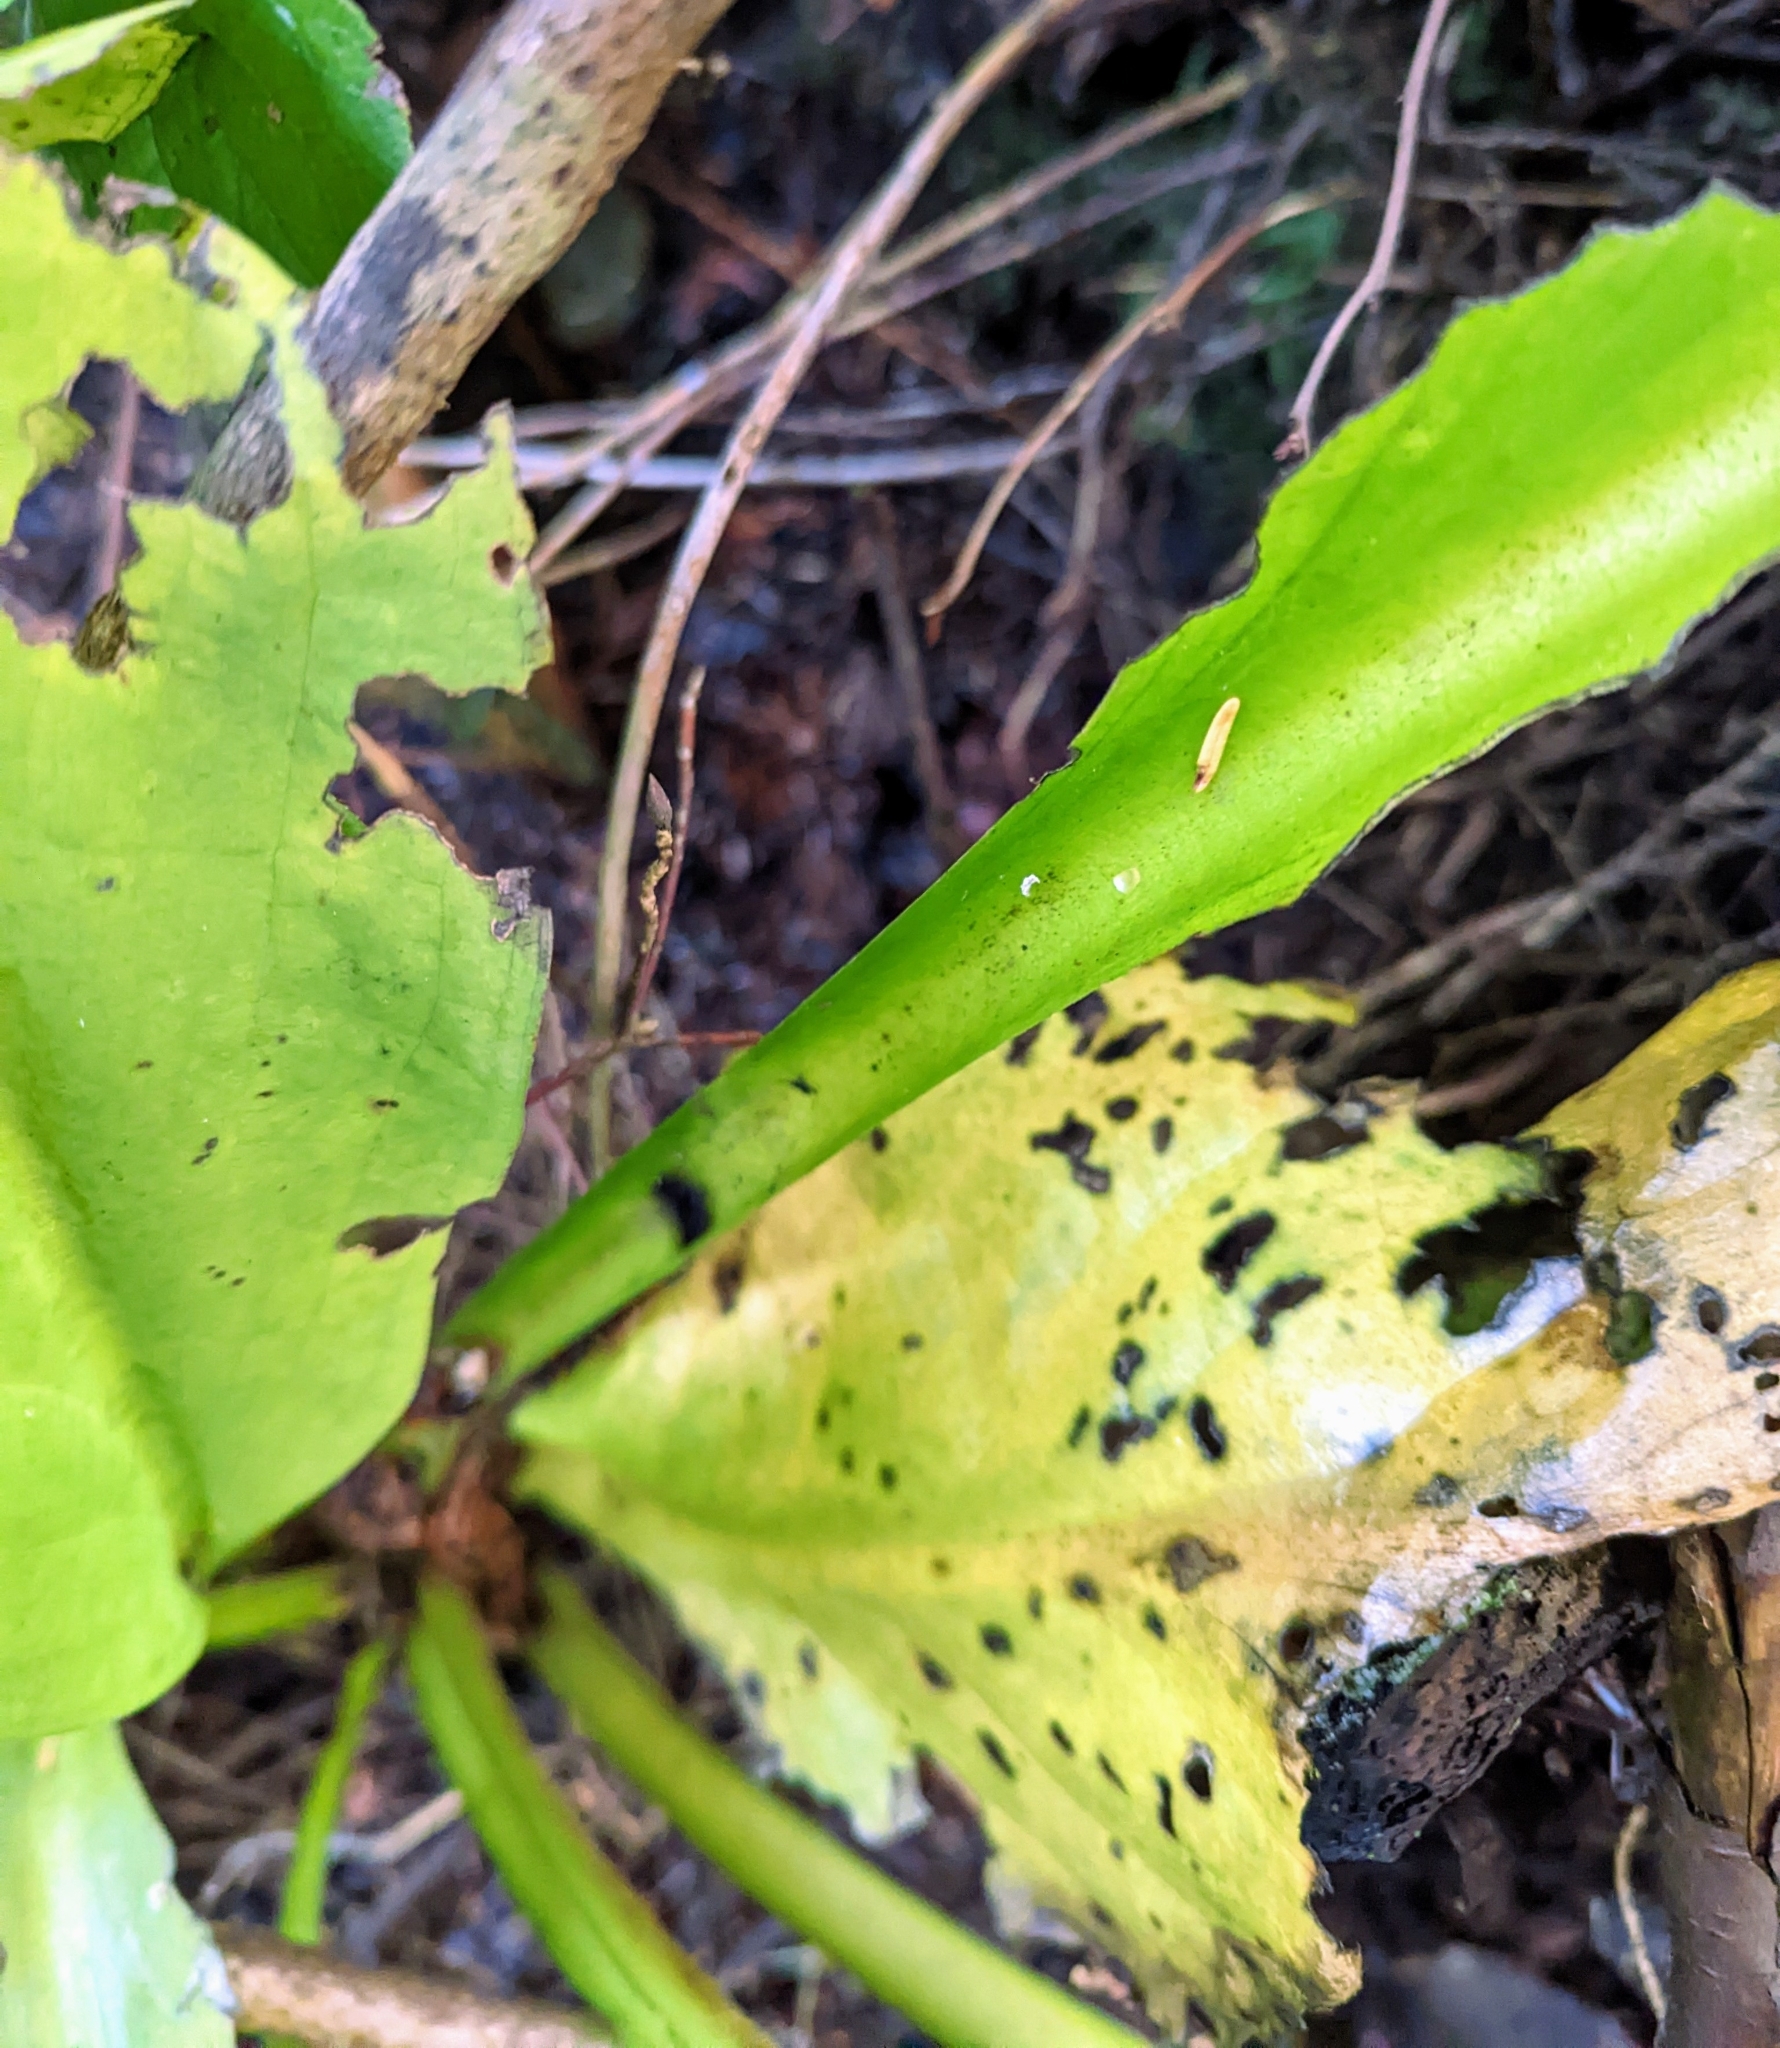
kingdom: Plantae
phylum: Tracheophyta
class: Liliopsida
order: Alismatales
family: Araceae
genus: Lysichiton
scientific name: Lysichiton americanus
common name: American skunk cabbage
